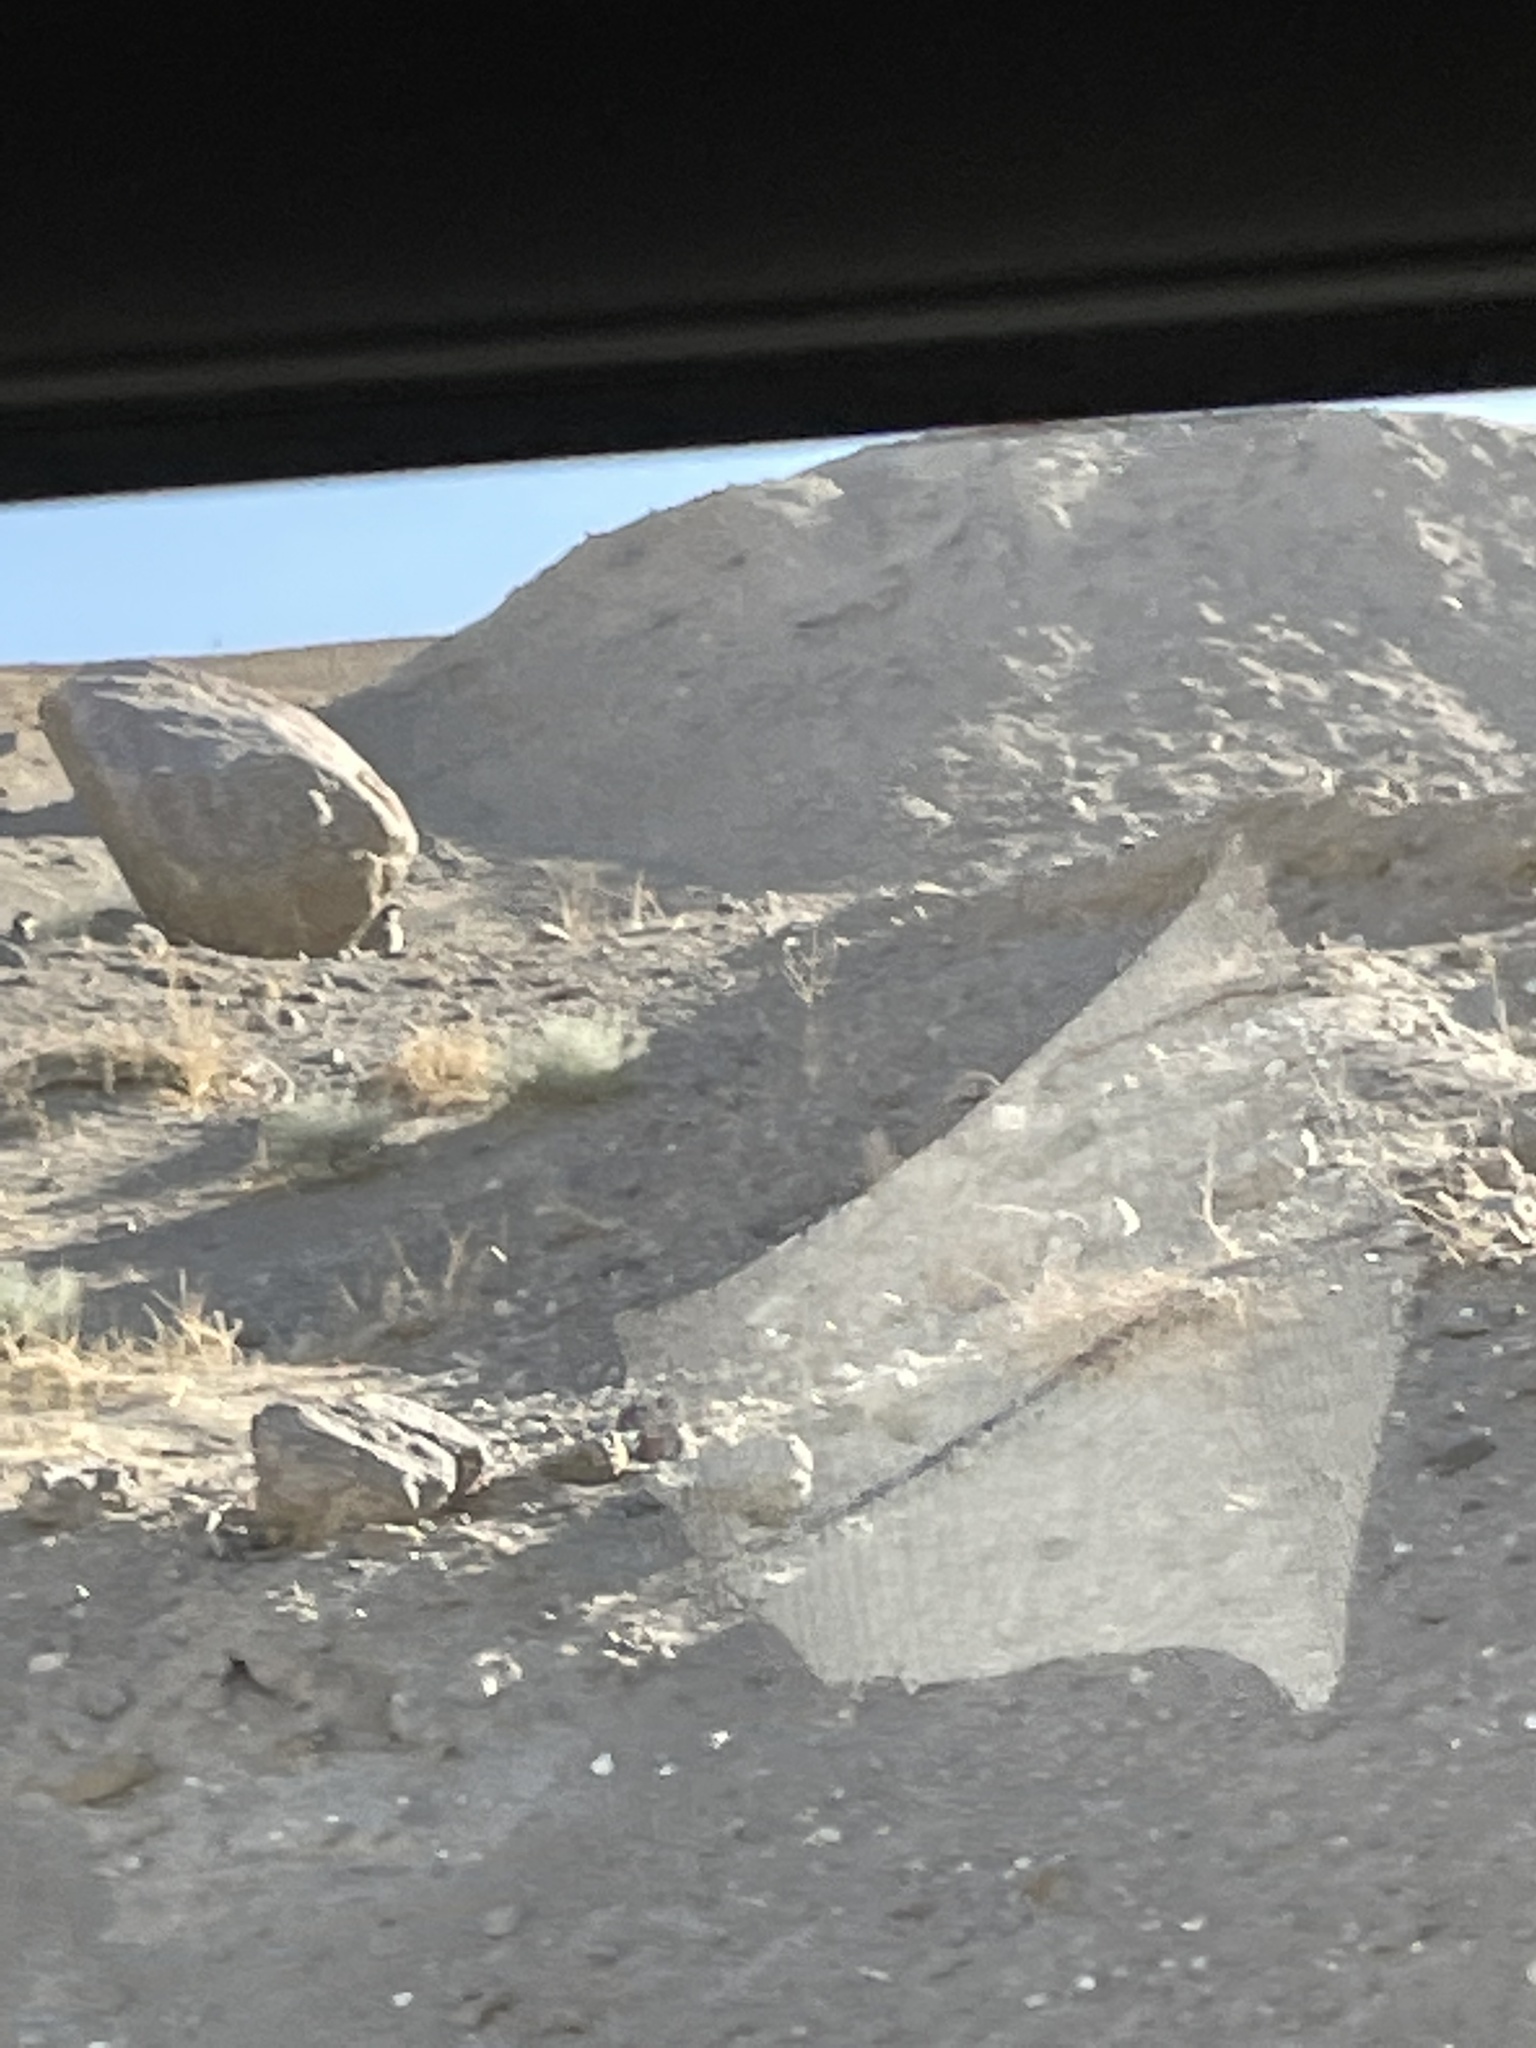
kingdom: Animalia
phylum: Chordata
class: Aves
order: Galliformes
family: Phasianidae
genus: Alectoris
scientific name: Alectoris chukar
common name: Chukar
